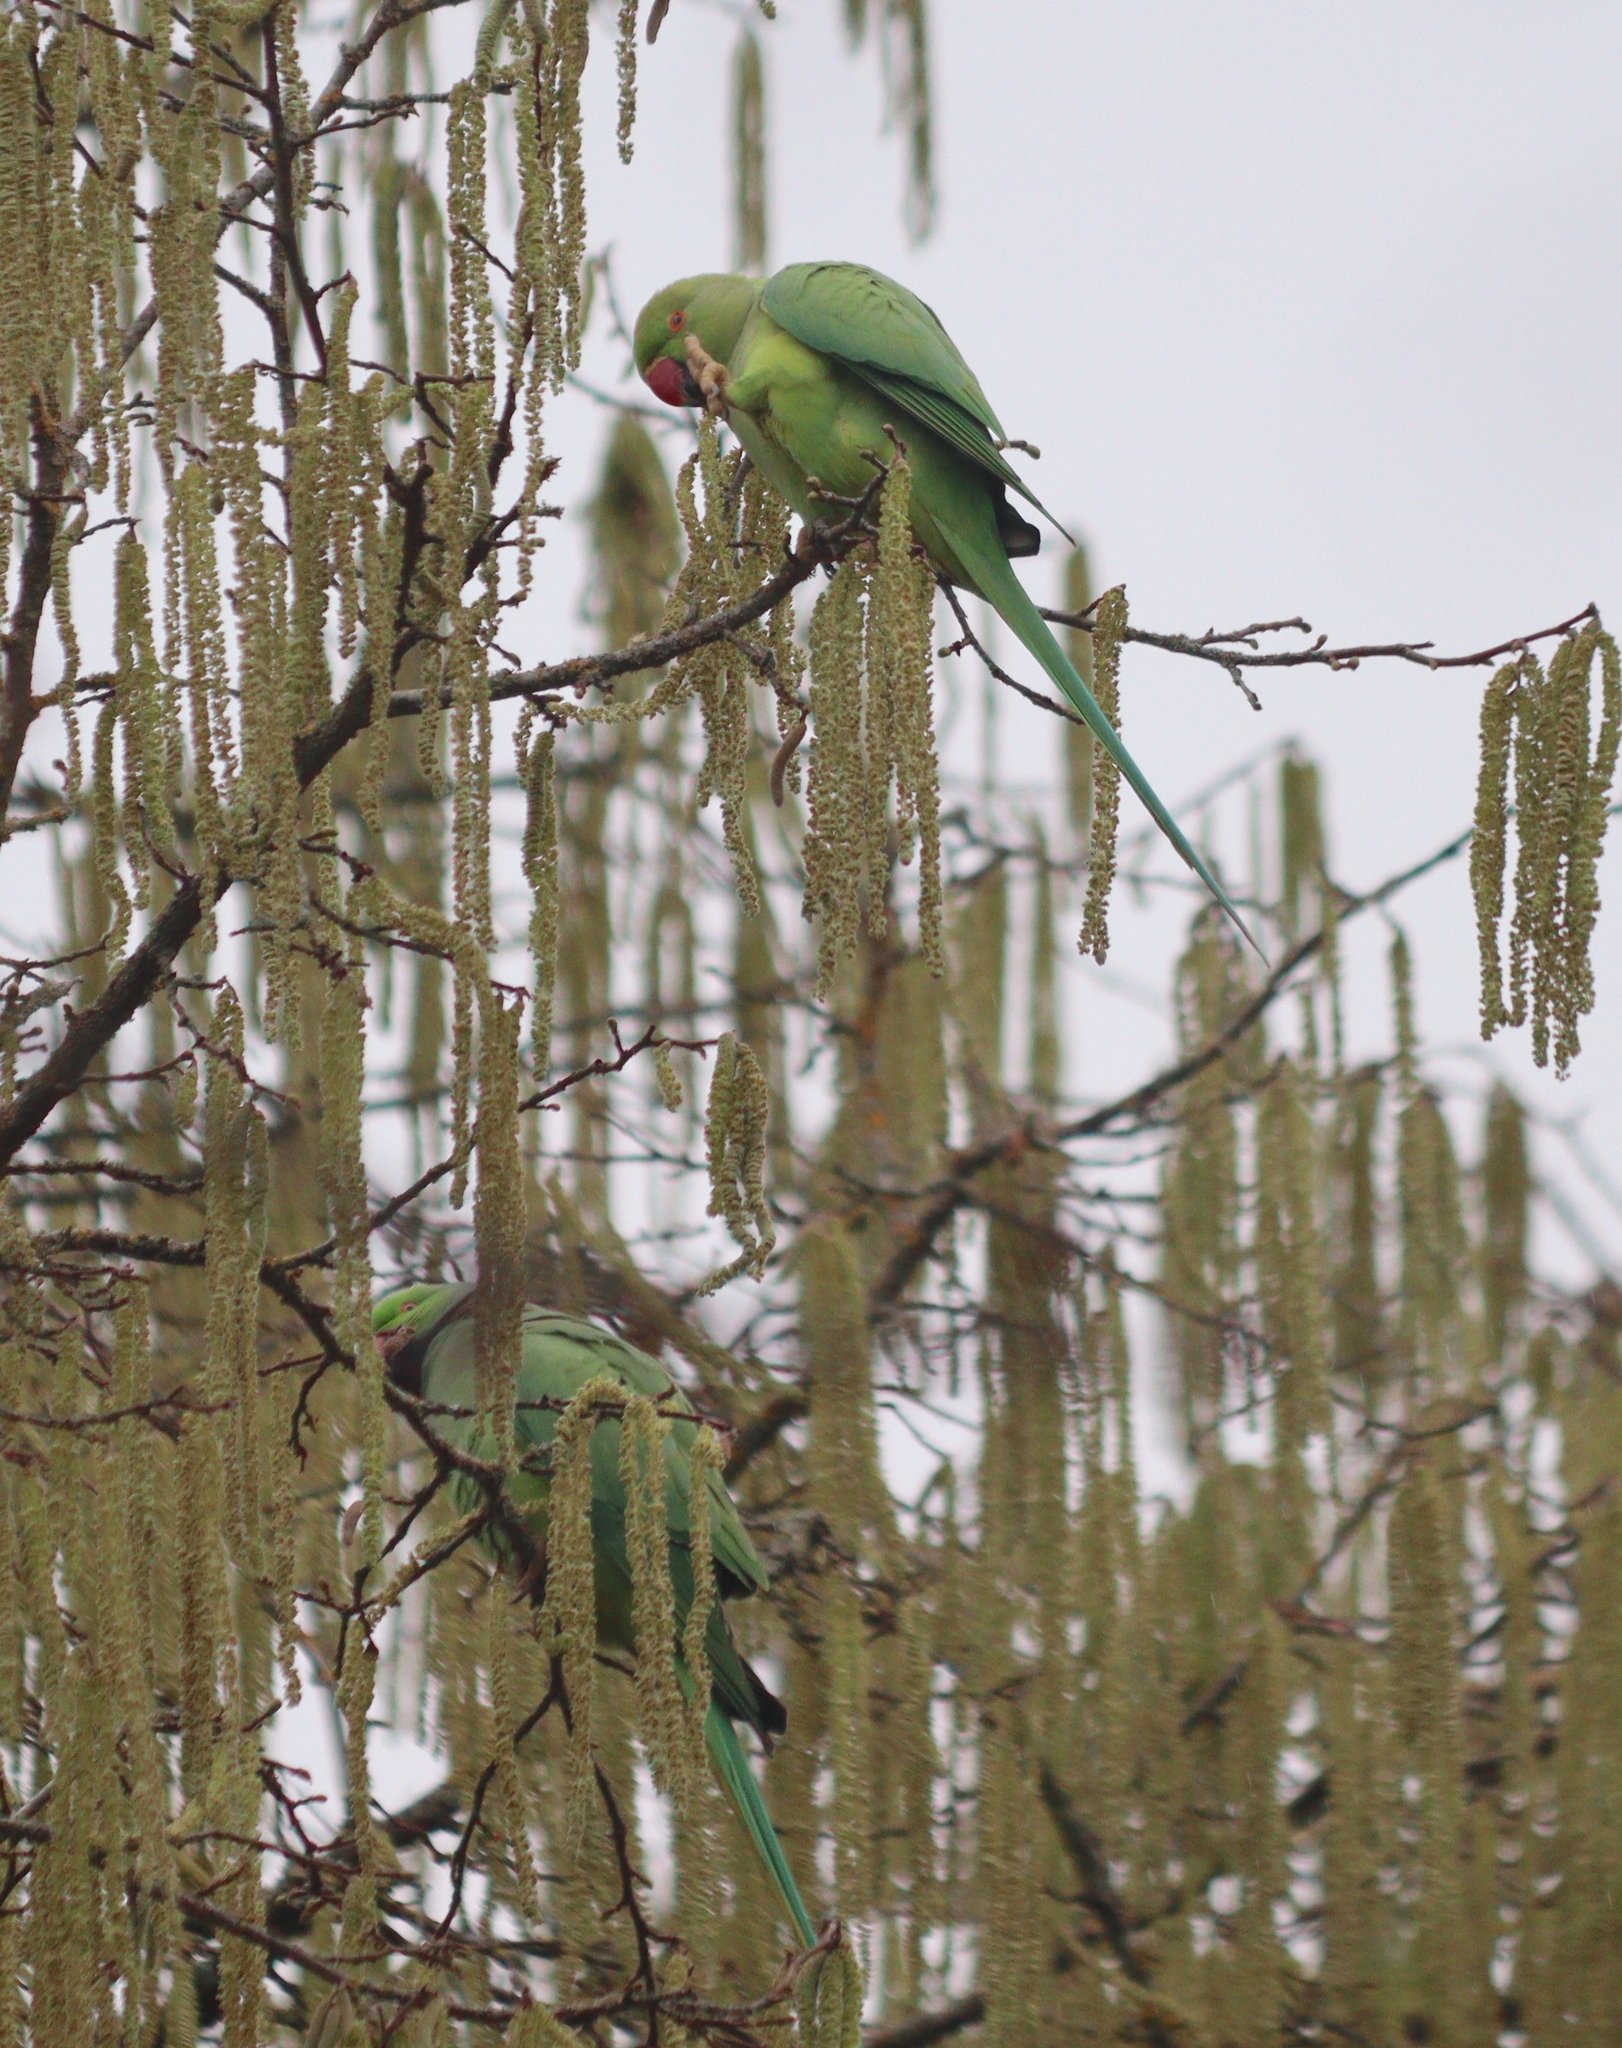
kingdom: Animalia
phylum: Chordata
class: Aves
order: Psittaciformes
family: Psittacidae
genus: Psittacula
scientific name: Psittacula krameri
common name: Rose-ringed parakeet
